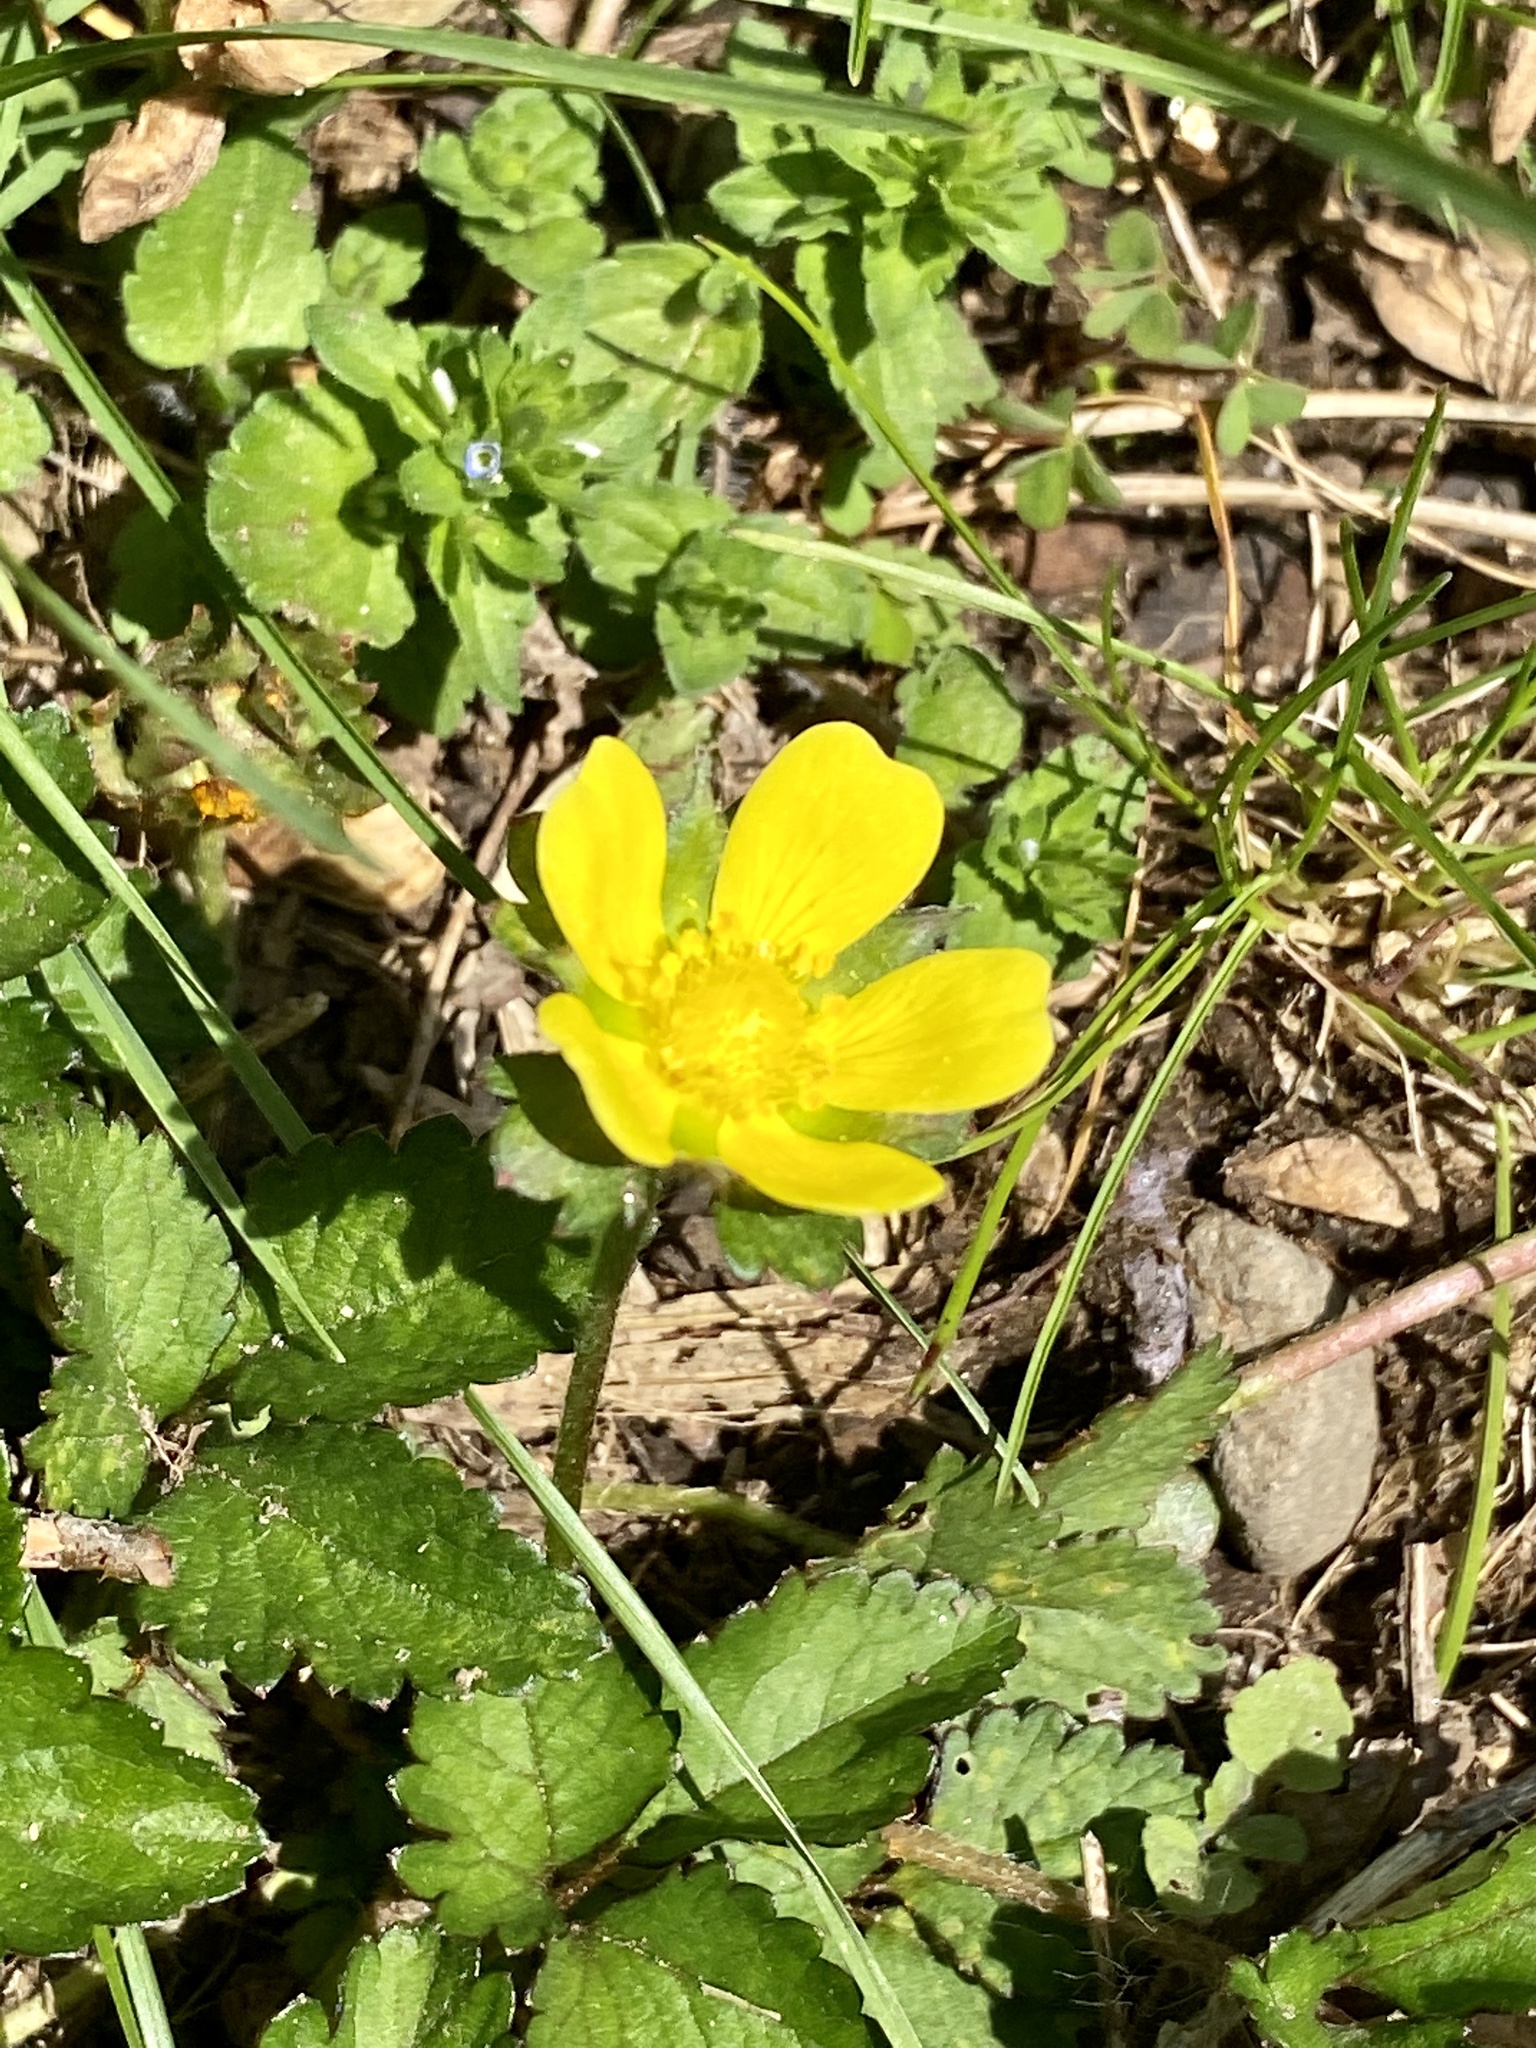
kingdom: Plantae
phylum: Tracheophyta
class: Magnoliopsida
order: Rosales
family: Rosaceae
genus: Potentilla
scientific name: Potentilla indica
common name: Yellow-flowered strawberry
